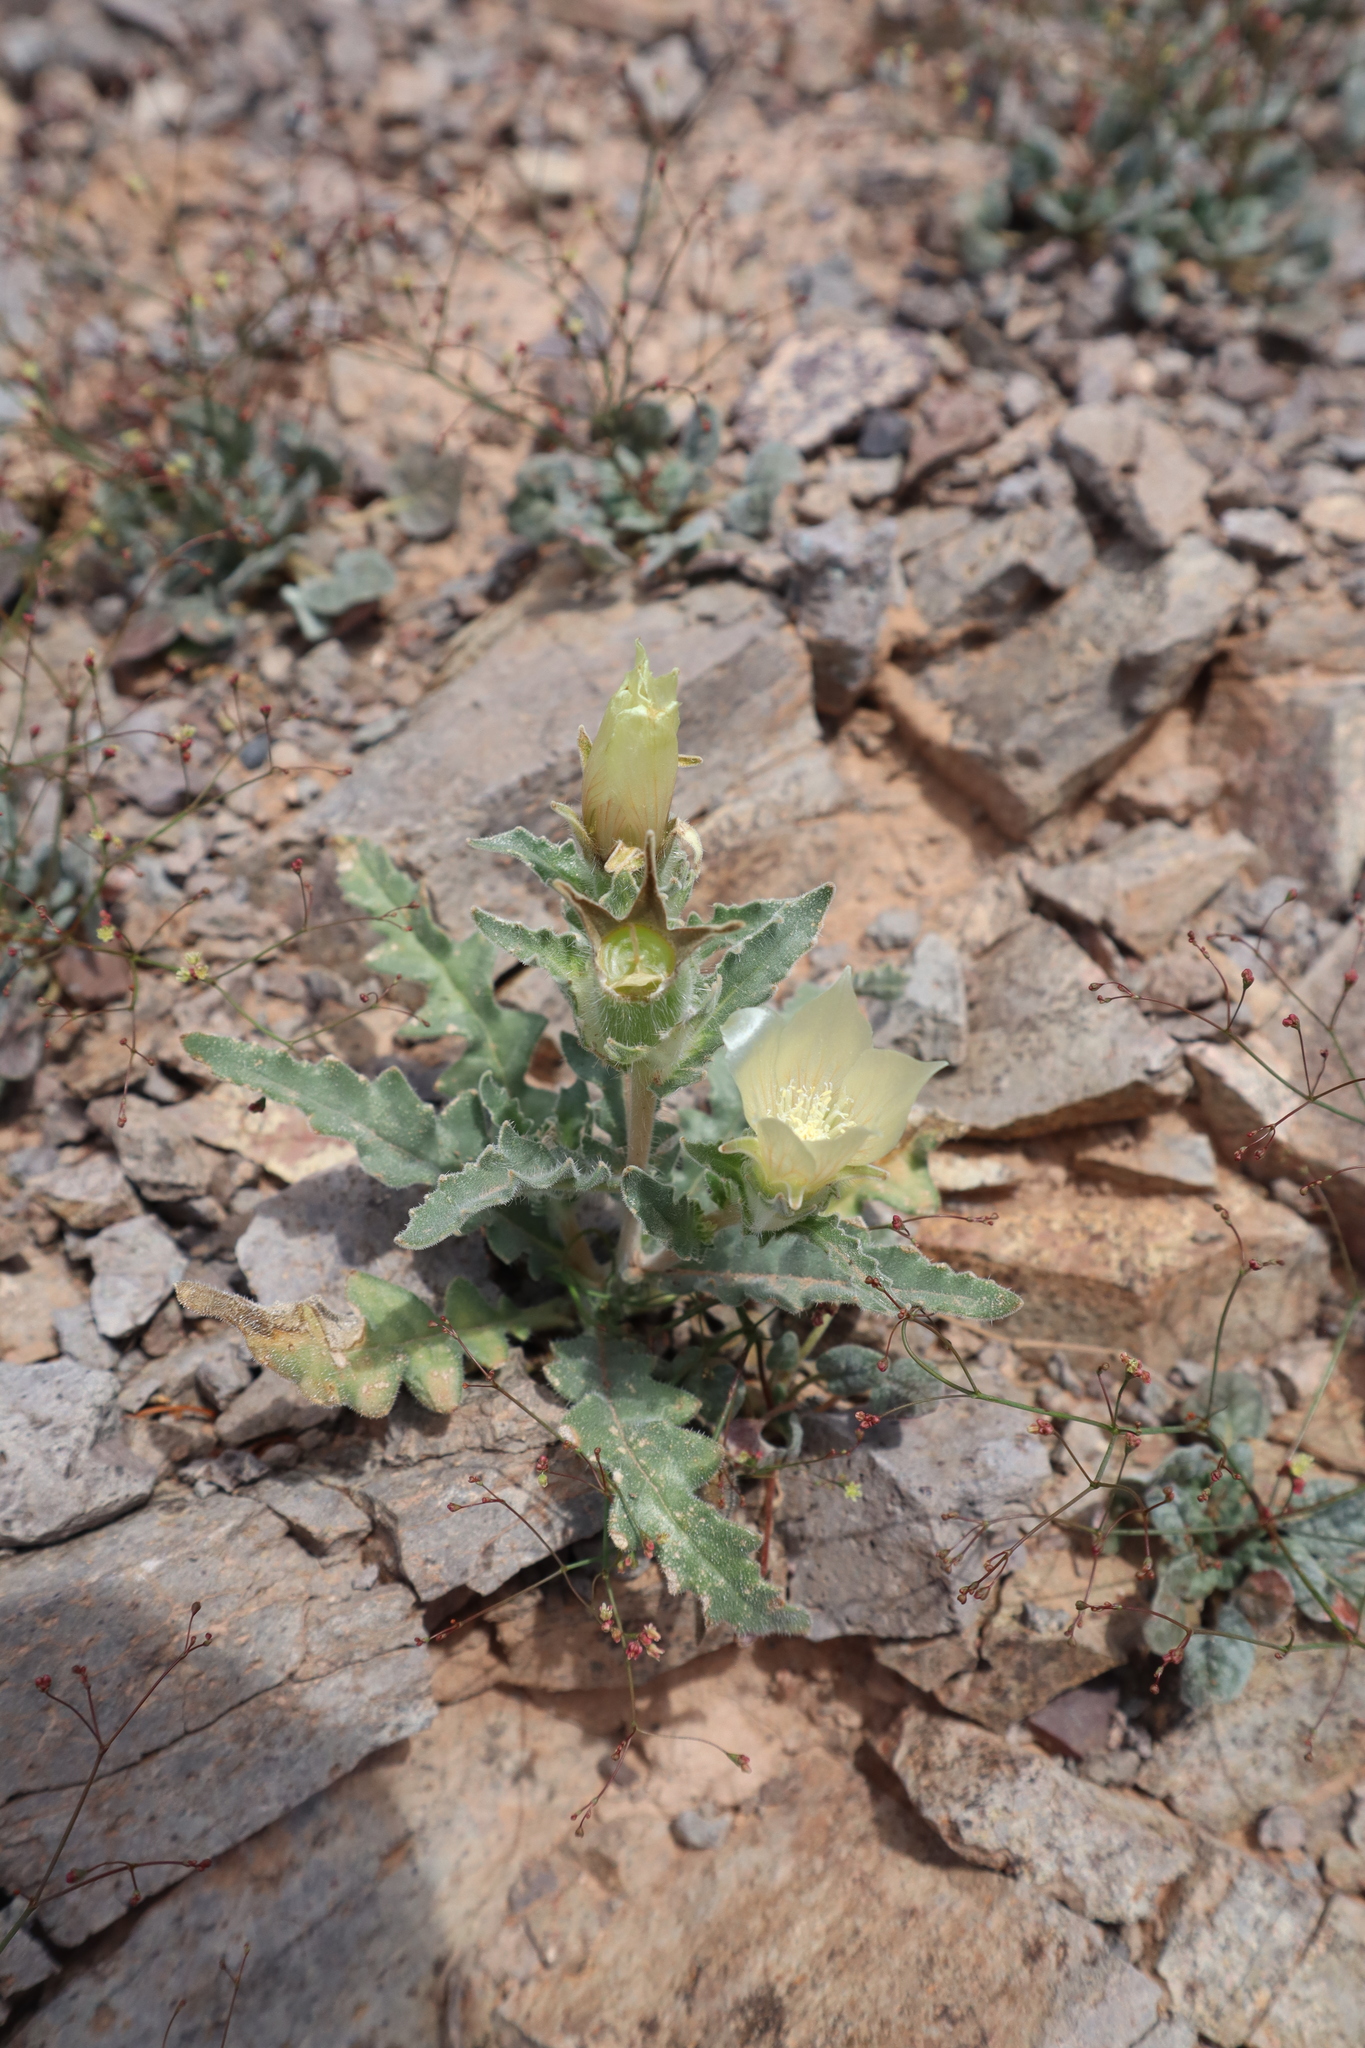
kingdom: Plantae
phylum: Tracheophyta
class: Magnoliopsida
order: Cornales
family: Loasaceae
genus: Mentzelia
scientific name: Mentzelia involucrata
